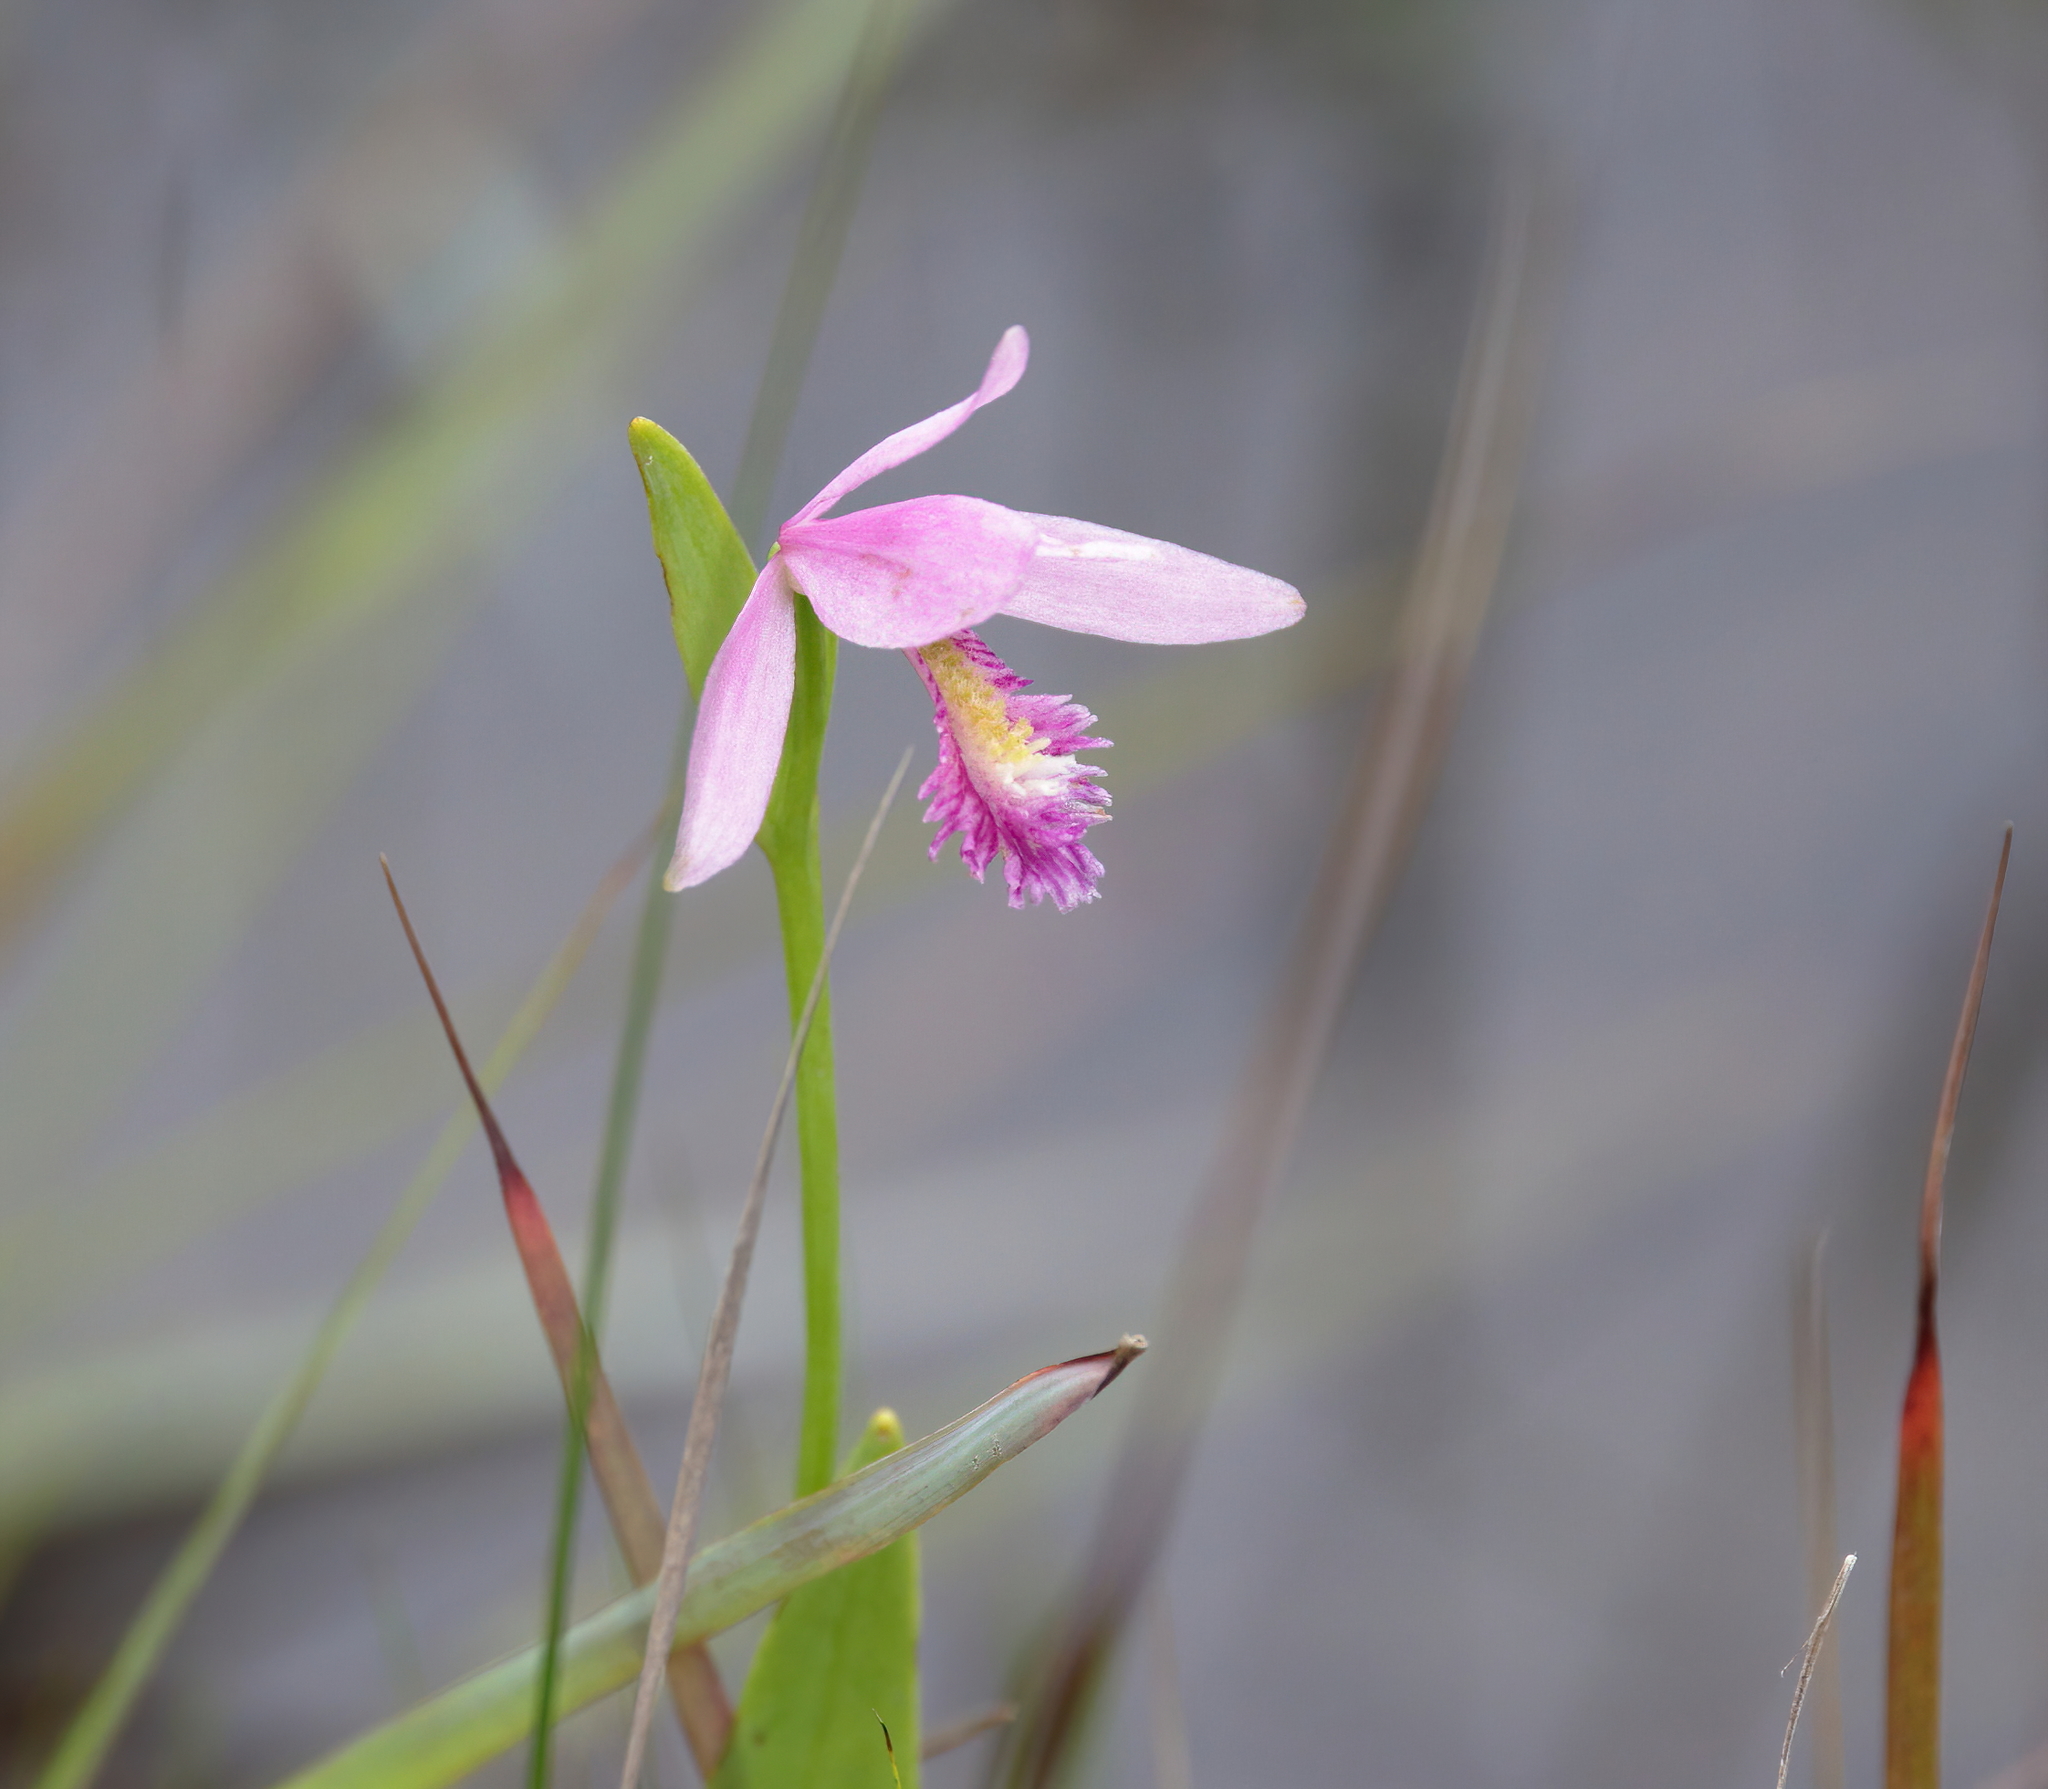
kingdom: Plantae
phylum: Tracheophyta
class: Liliopsida
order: Asparagales
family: Orchidaceae
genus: Pogonia
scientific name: Pogonia ophioglossoides
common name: Rose pogonia
